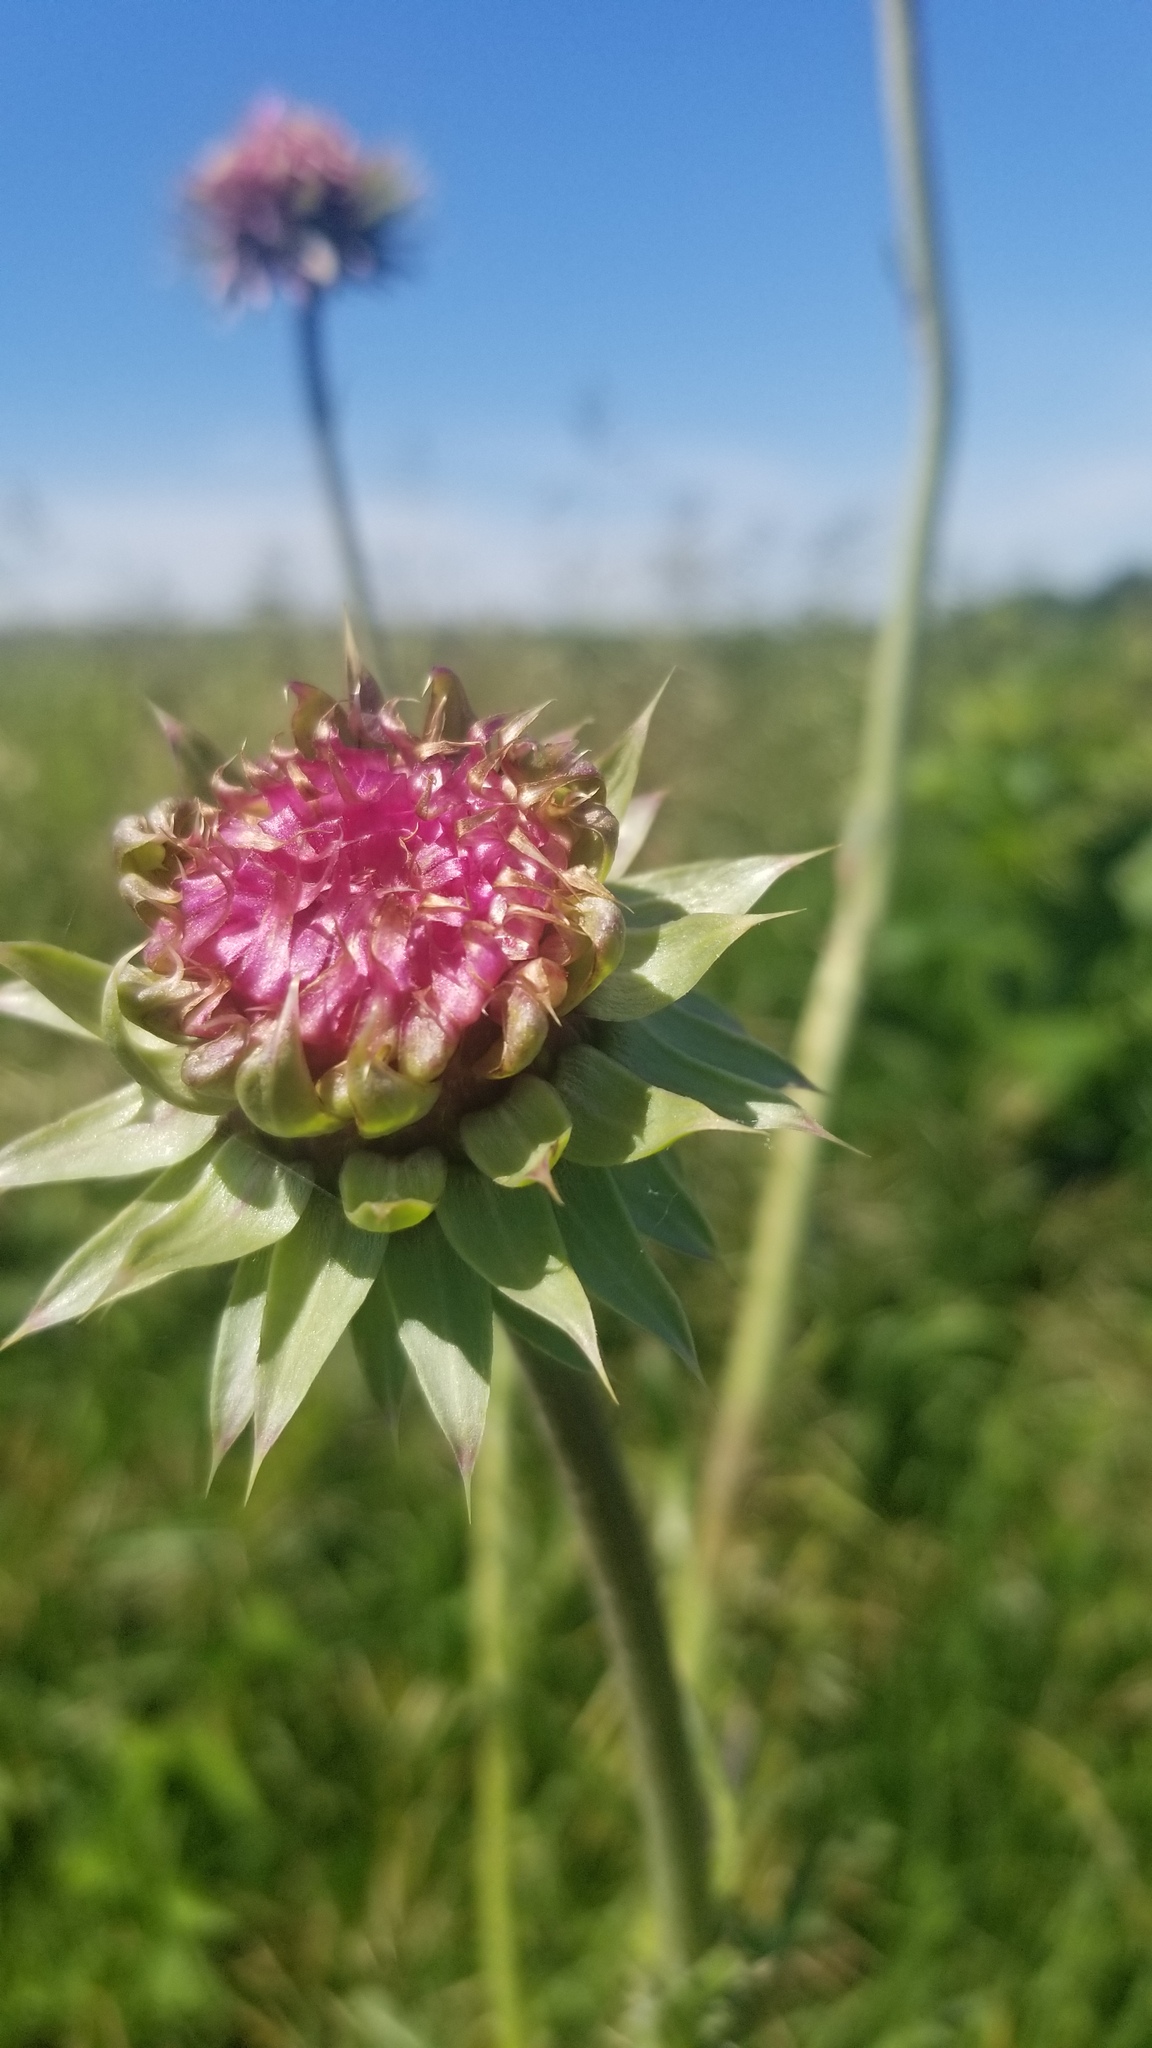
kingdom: Plantae
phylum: Tracheophyta
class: Magnoliopsida
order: Asterales
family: Asteraceae
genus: Carduus
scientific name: Carduus nutans
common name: Musk thistle
